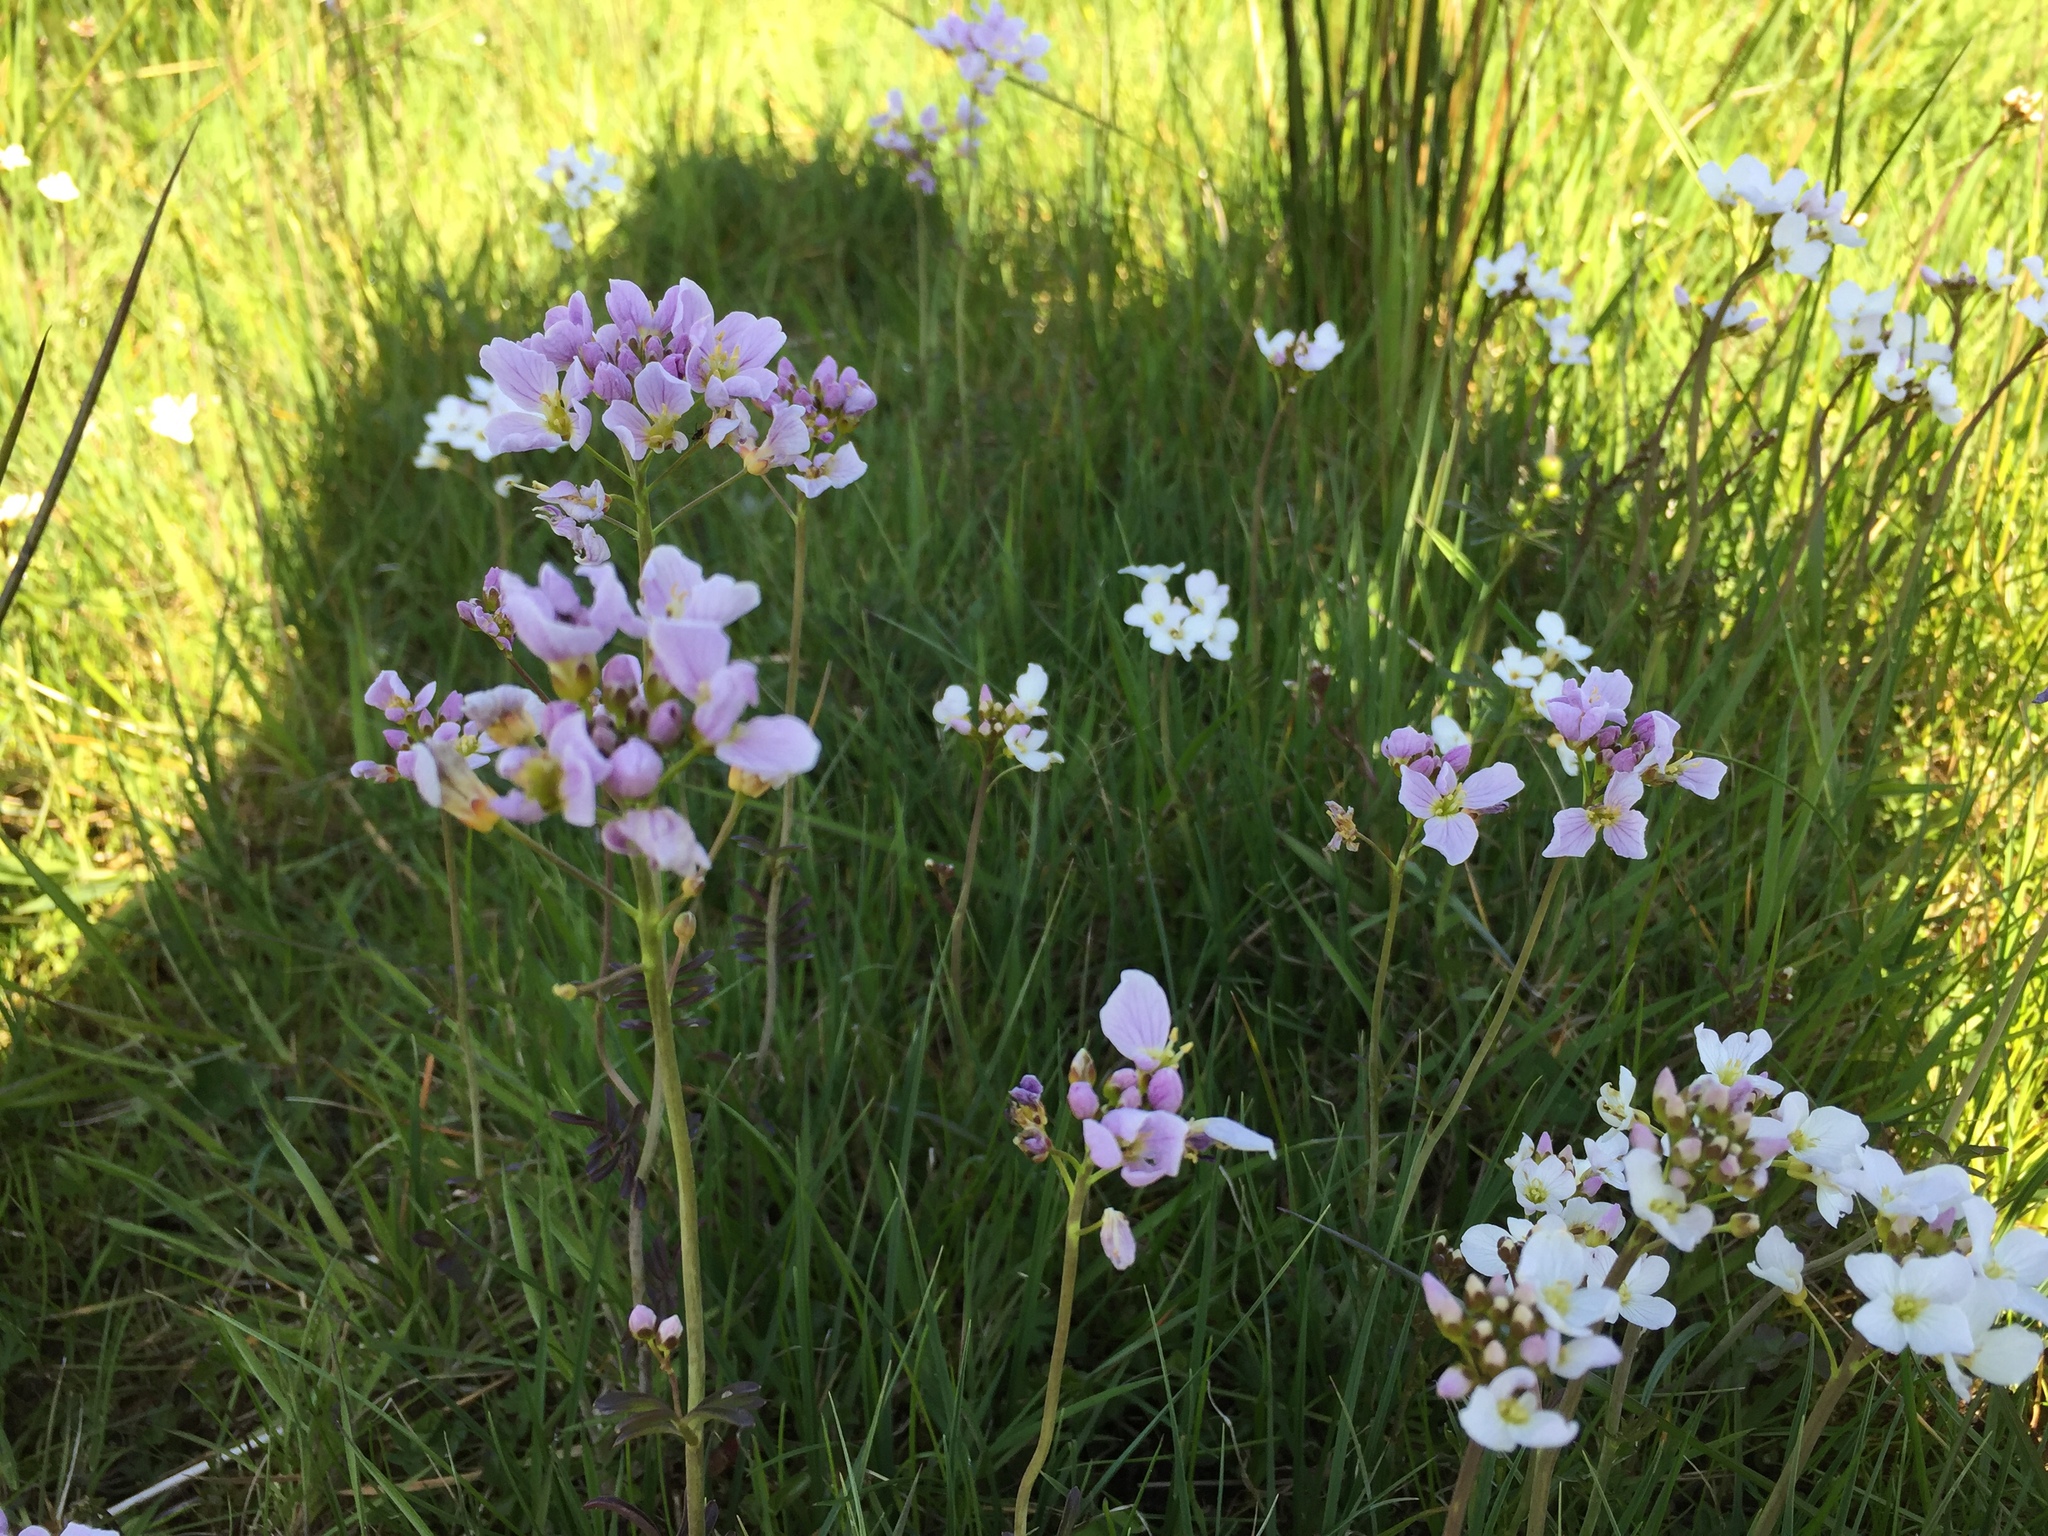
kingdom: Plantae
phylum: Tracheophyta
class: Magnoliopsida
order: Brassicales
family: Brassicaceae
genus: Cardamine
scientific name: Cardamine pratensis
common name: Cuckoo flower
